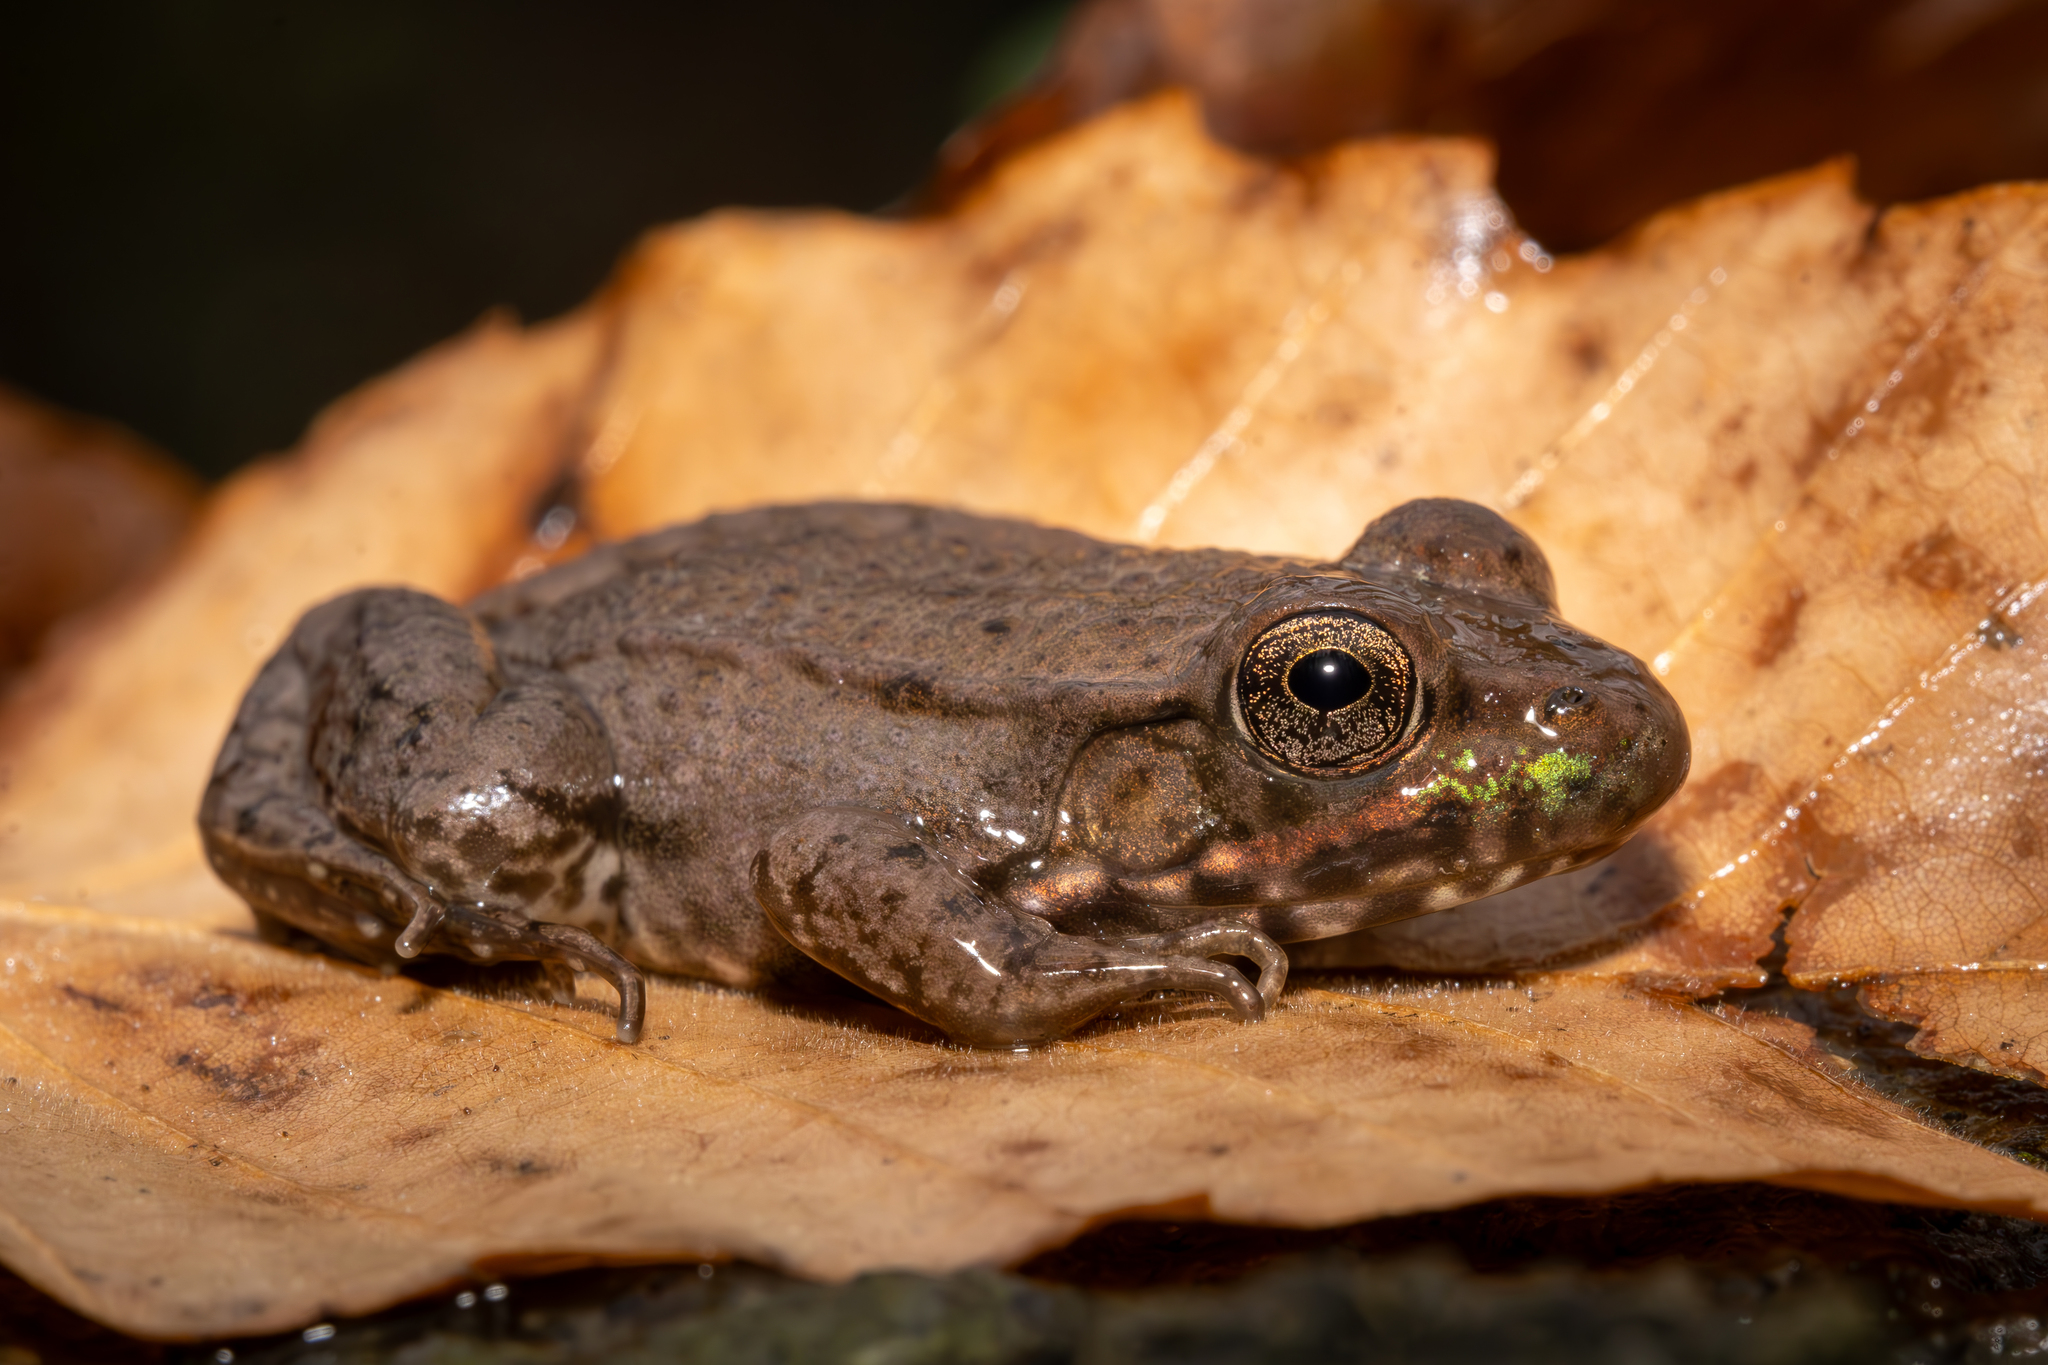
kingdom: Animalia
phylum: Chordata
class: Amphibia
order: Anura
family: Ranidae
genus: Lithobates
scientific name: Lithobates clamitans
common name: Green frog
